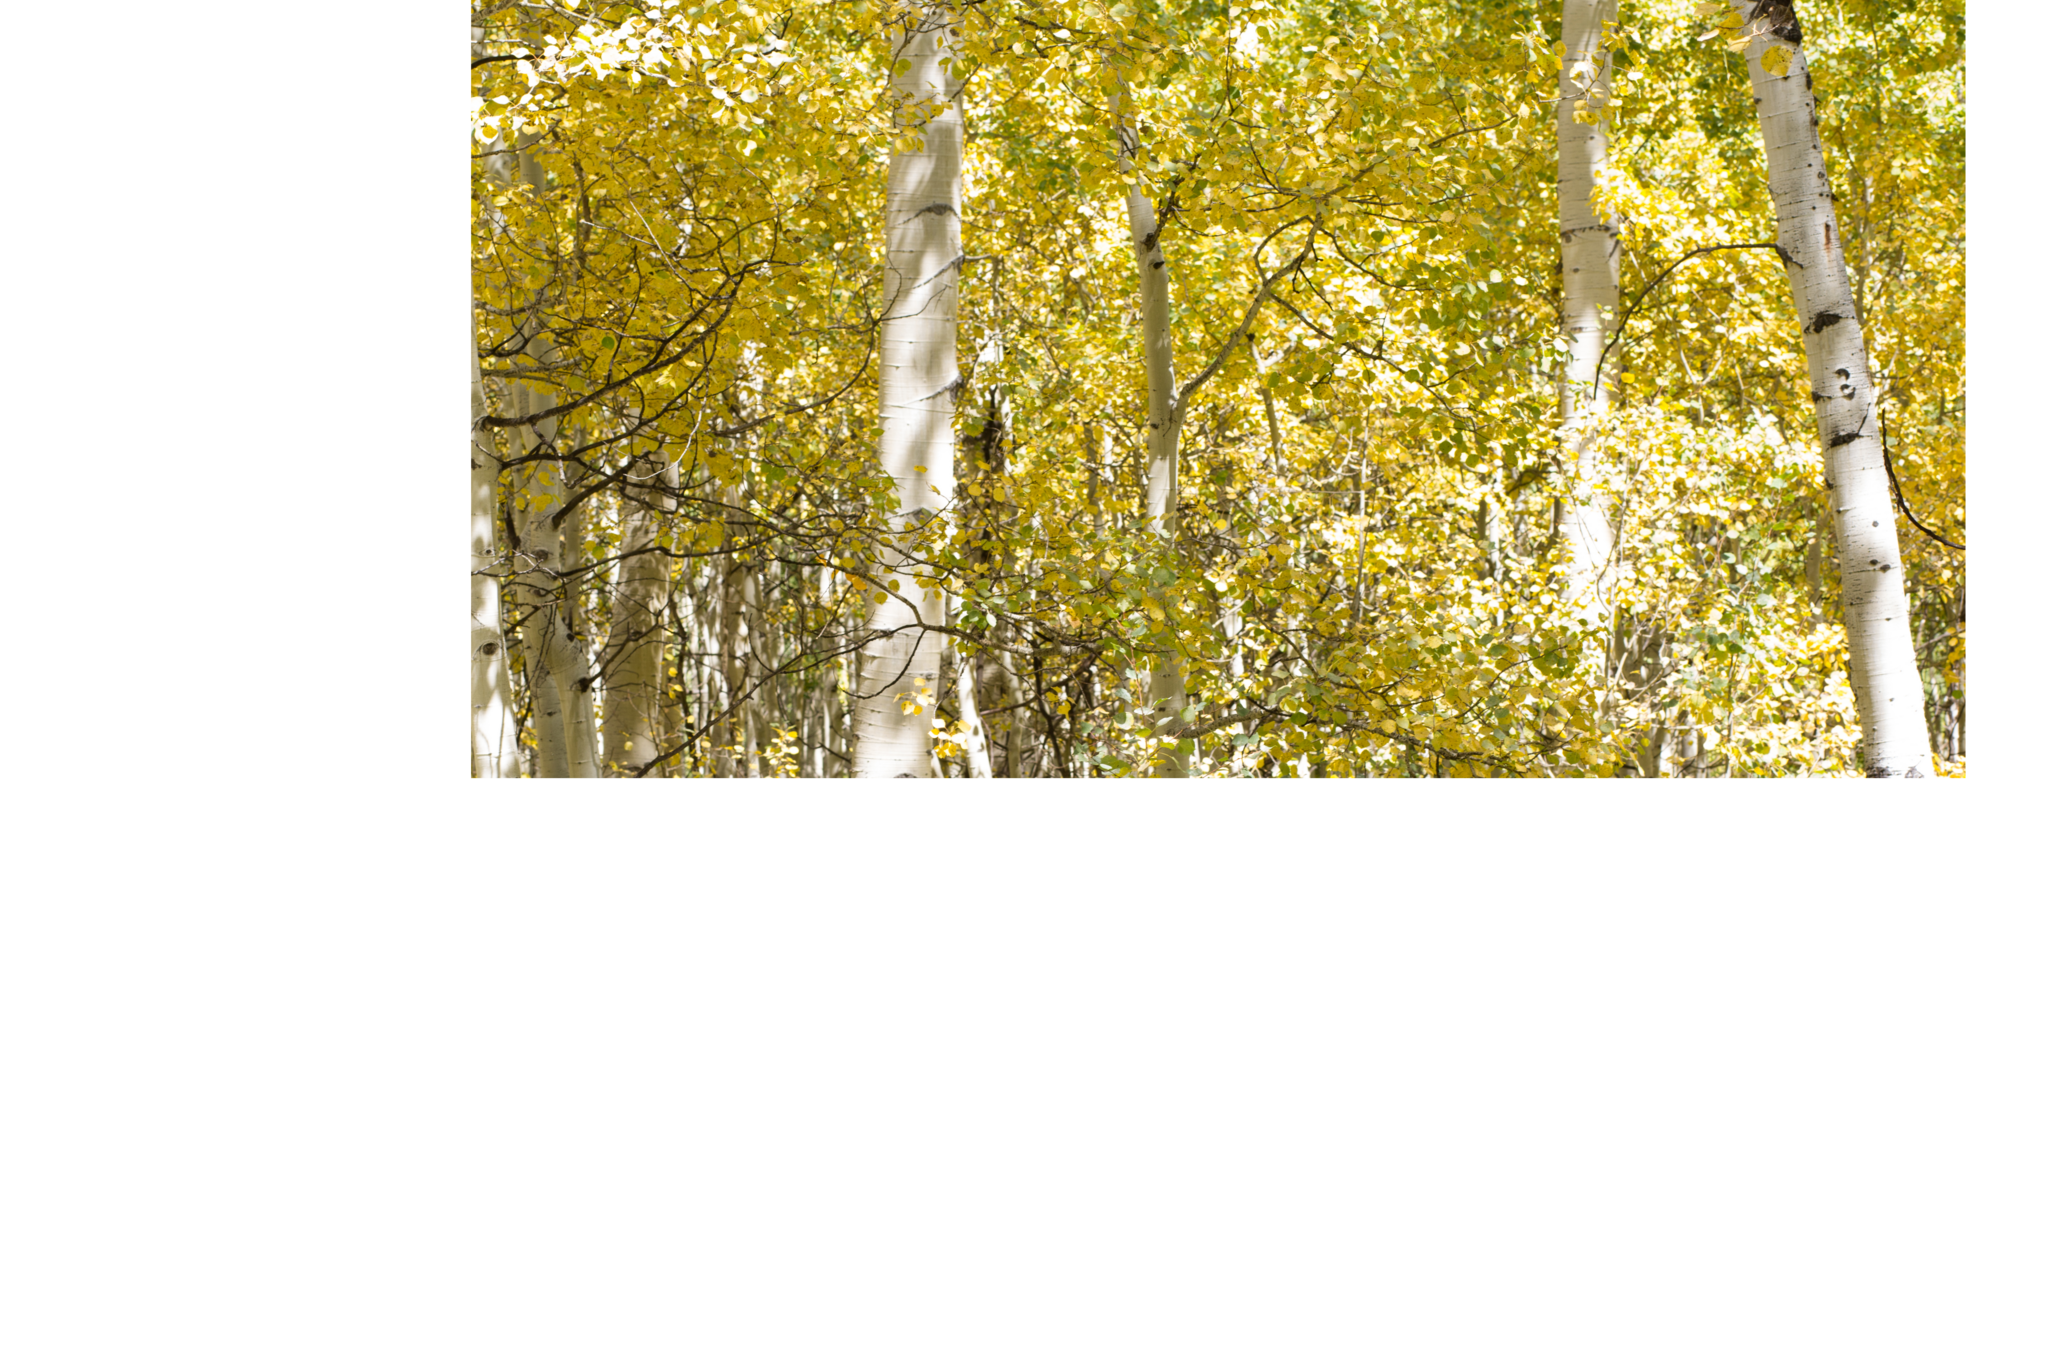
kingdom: Plantae
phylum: Tracheophyta
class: Magnoliopsida
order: Malpighiales
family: Salicaceae
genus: Populus
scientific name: Populus tremuloides
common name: Quaking aspen
